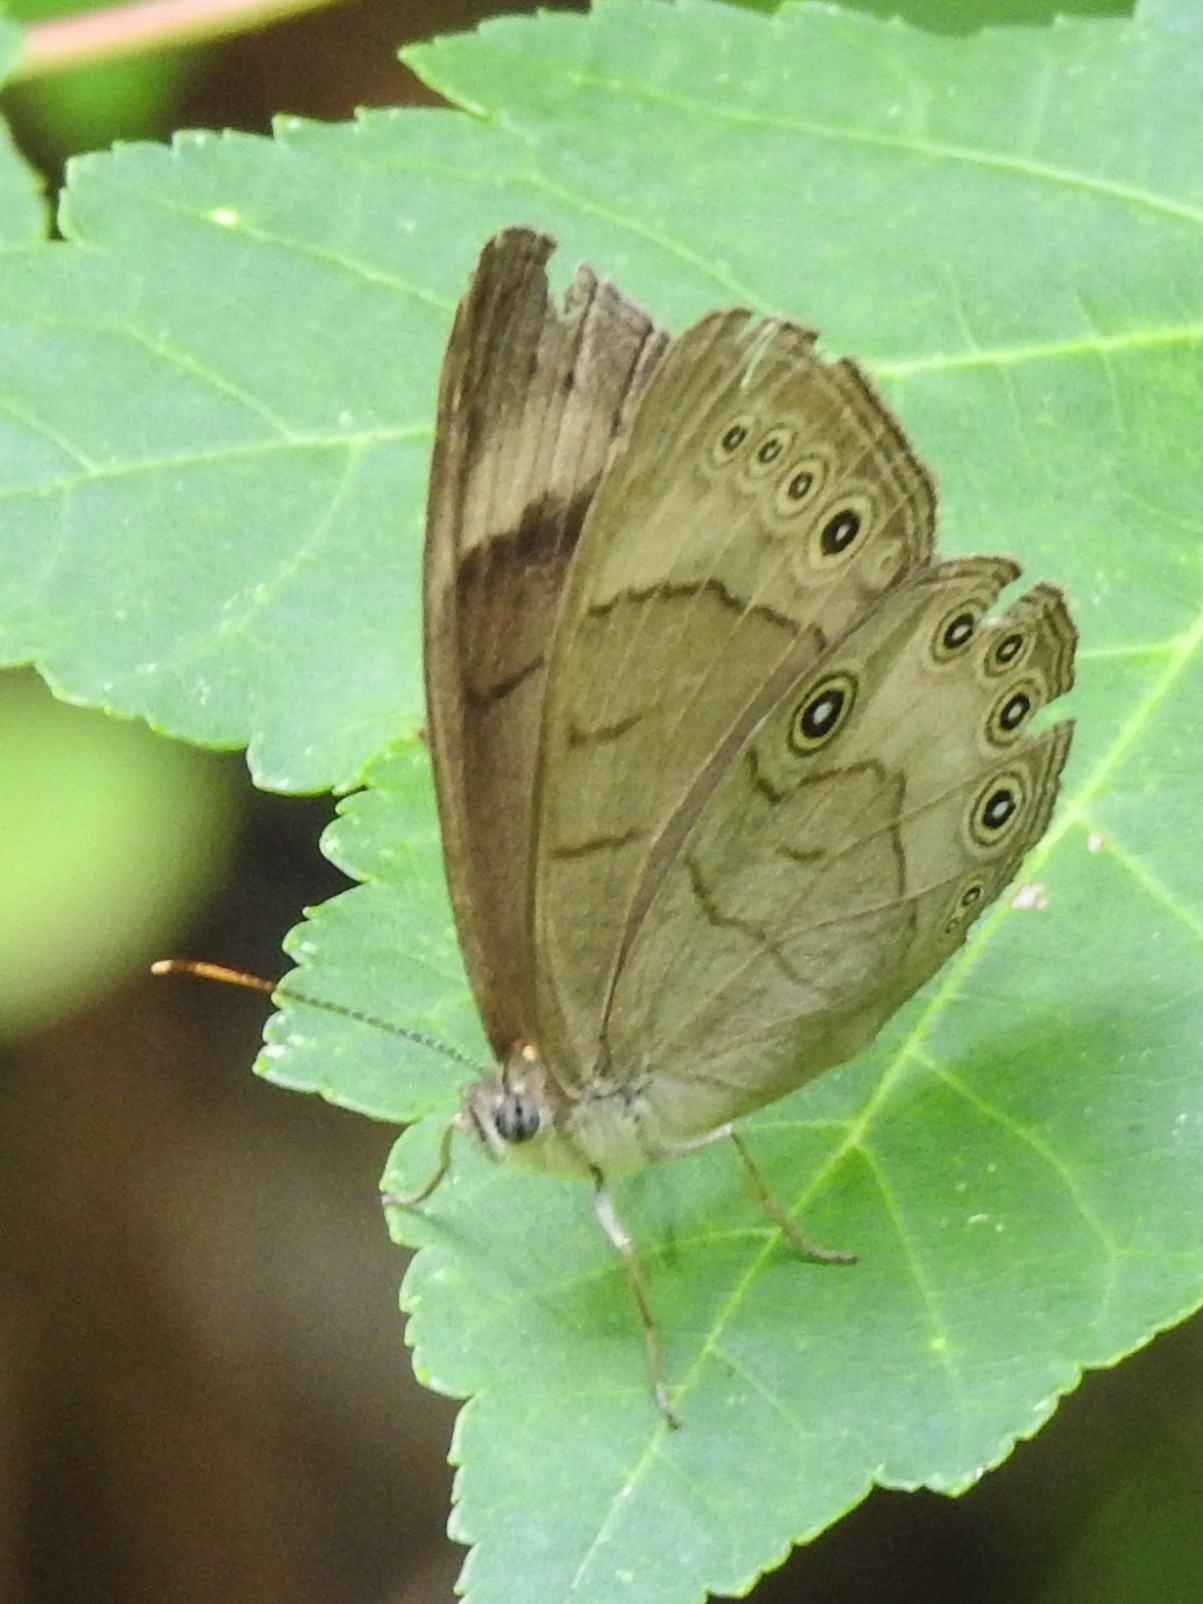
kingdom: Animalia
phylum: Arthropoda
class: Insecta
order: Lepidoptera
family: Nymphalidae
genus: Lethe
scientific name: Lethe eurydice
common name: Eyed brown
